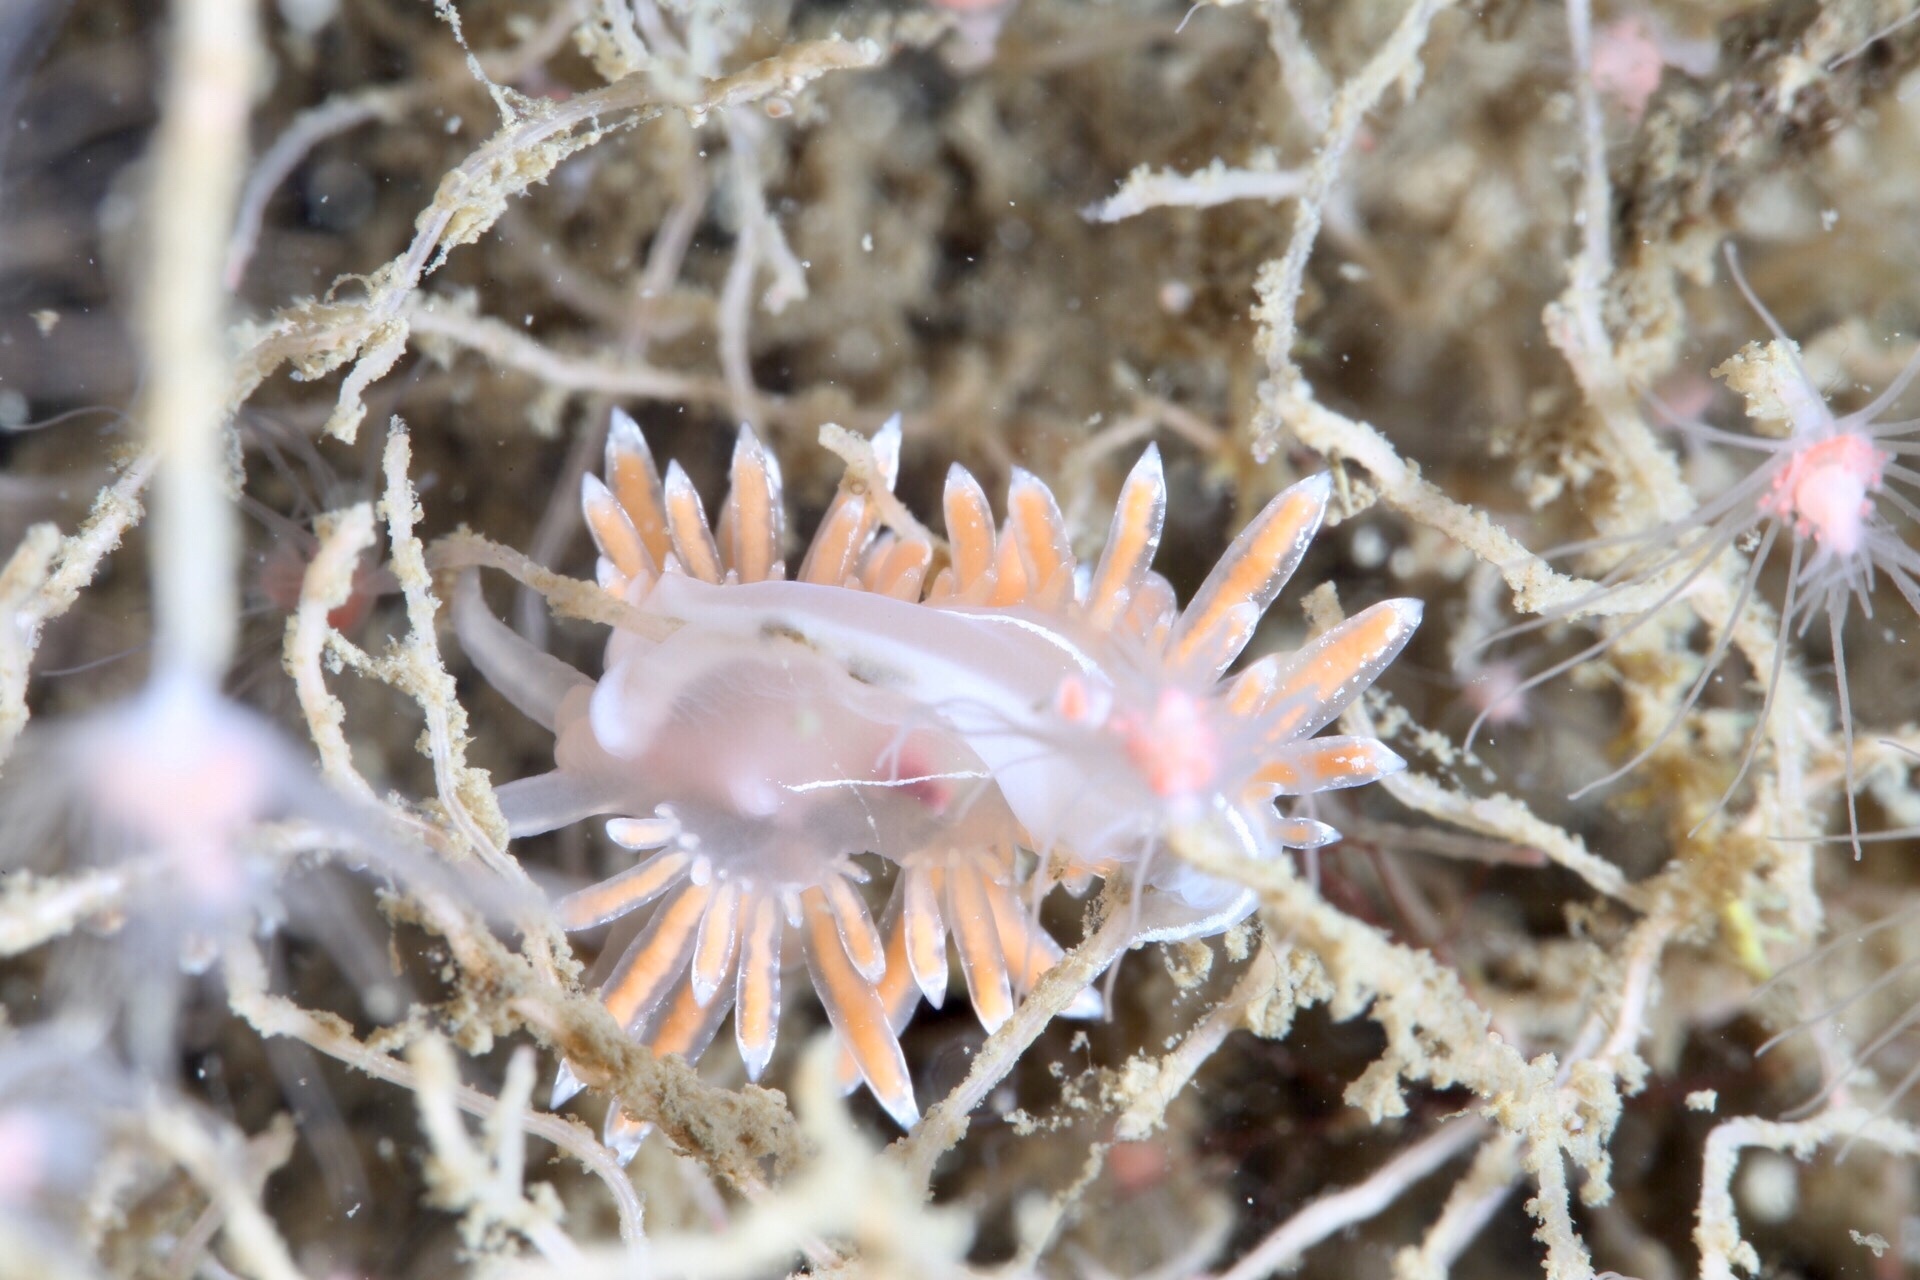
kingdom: Animalia
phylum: Mollusca
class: Gastropoda
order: Nudibranchia
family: Coryphellidae
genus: Coryphella
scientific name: Coryphella lineata
